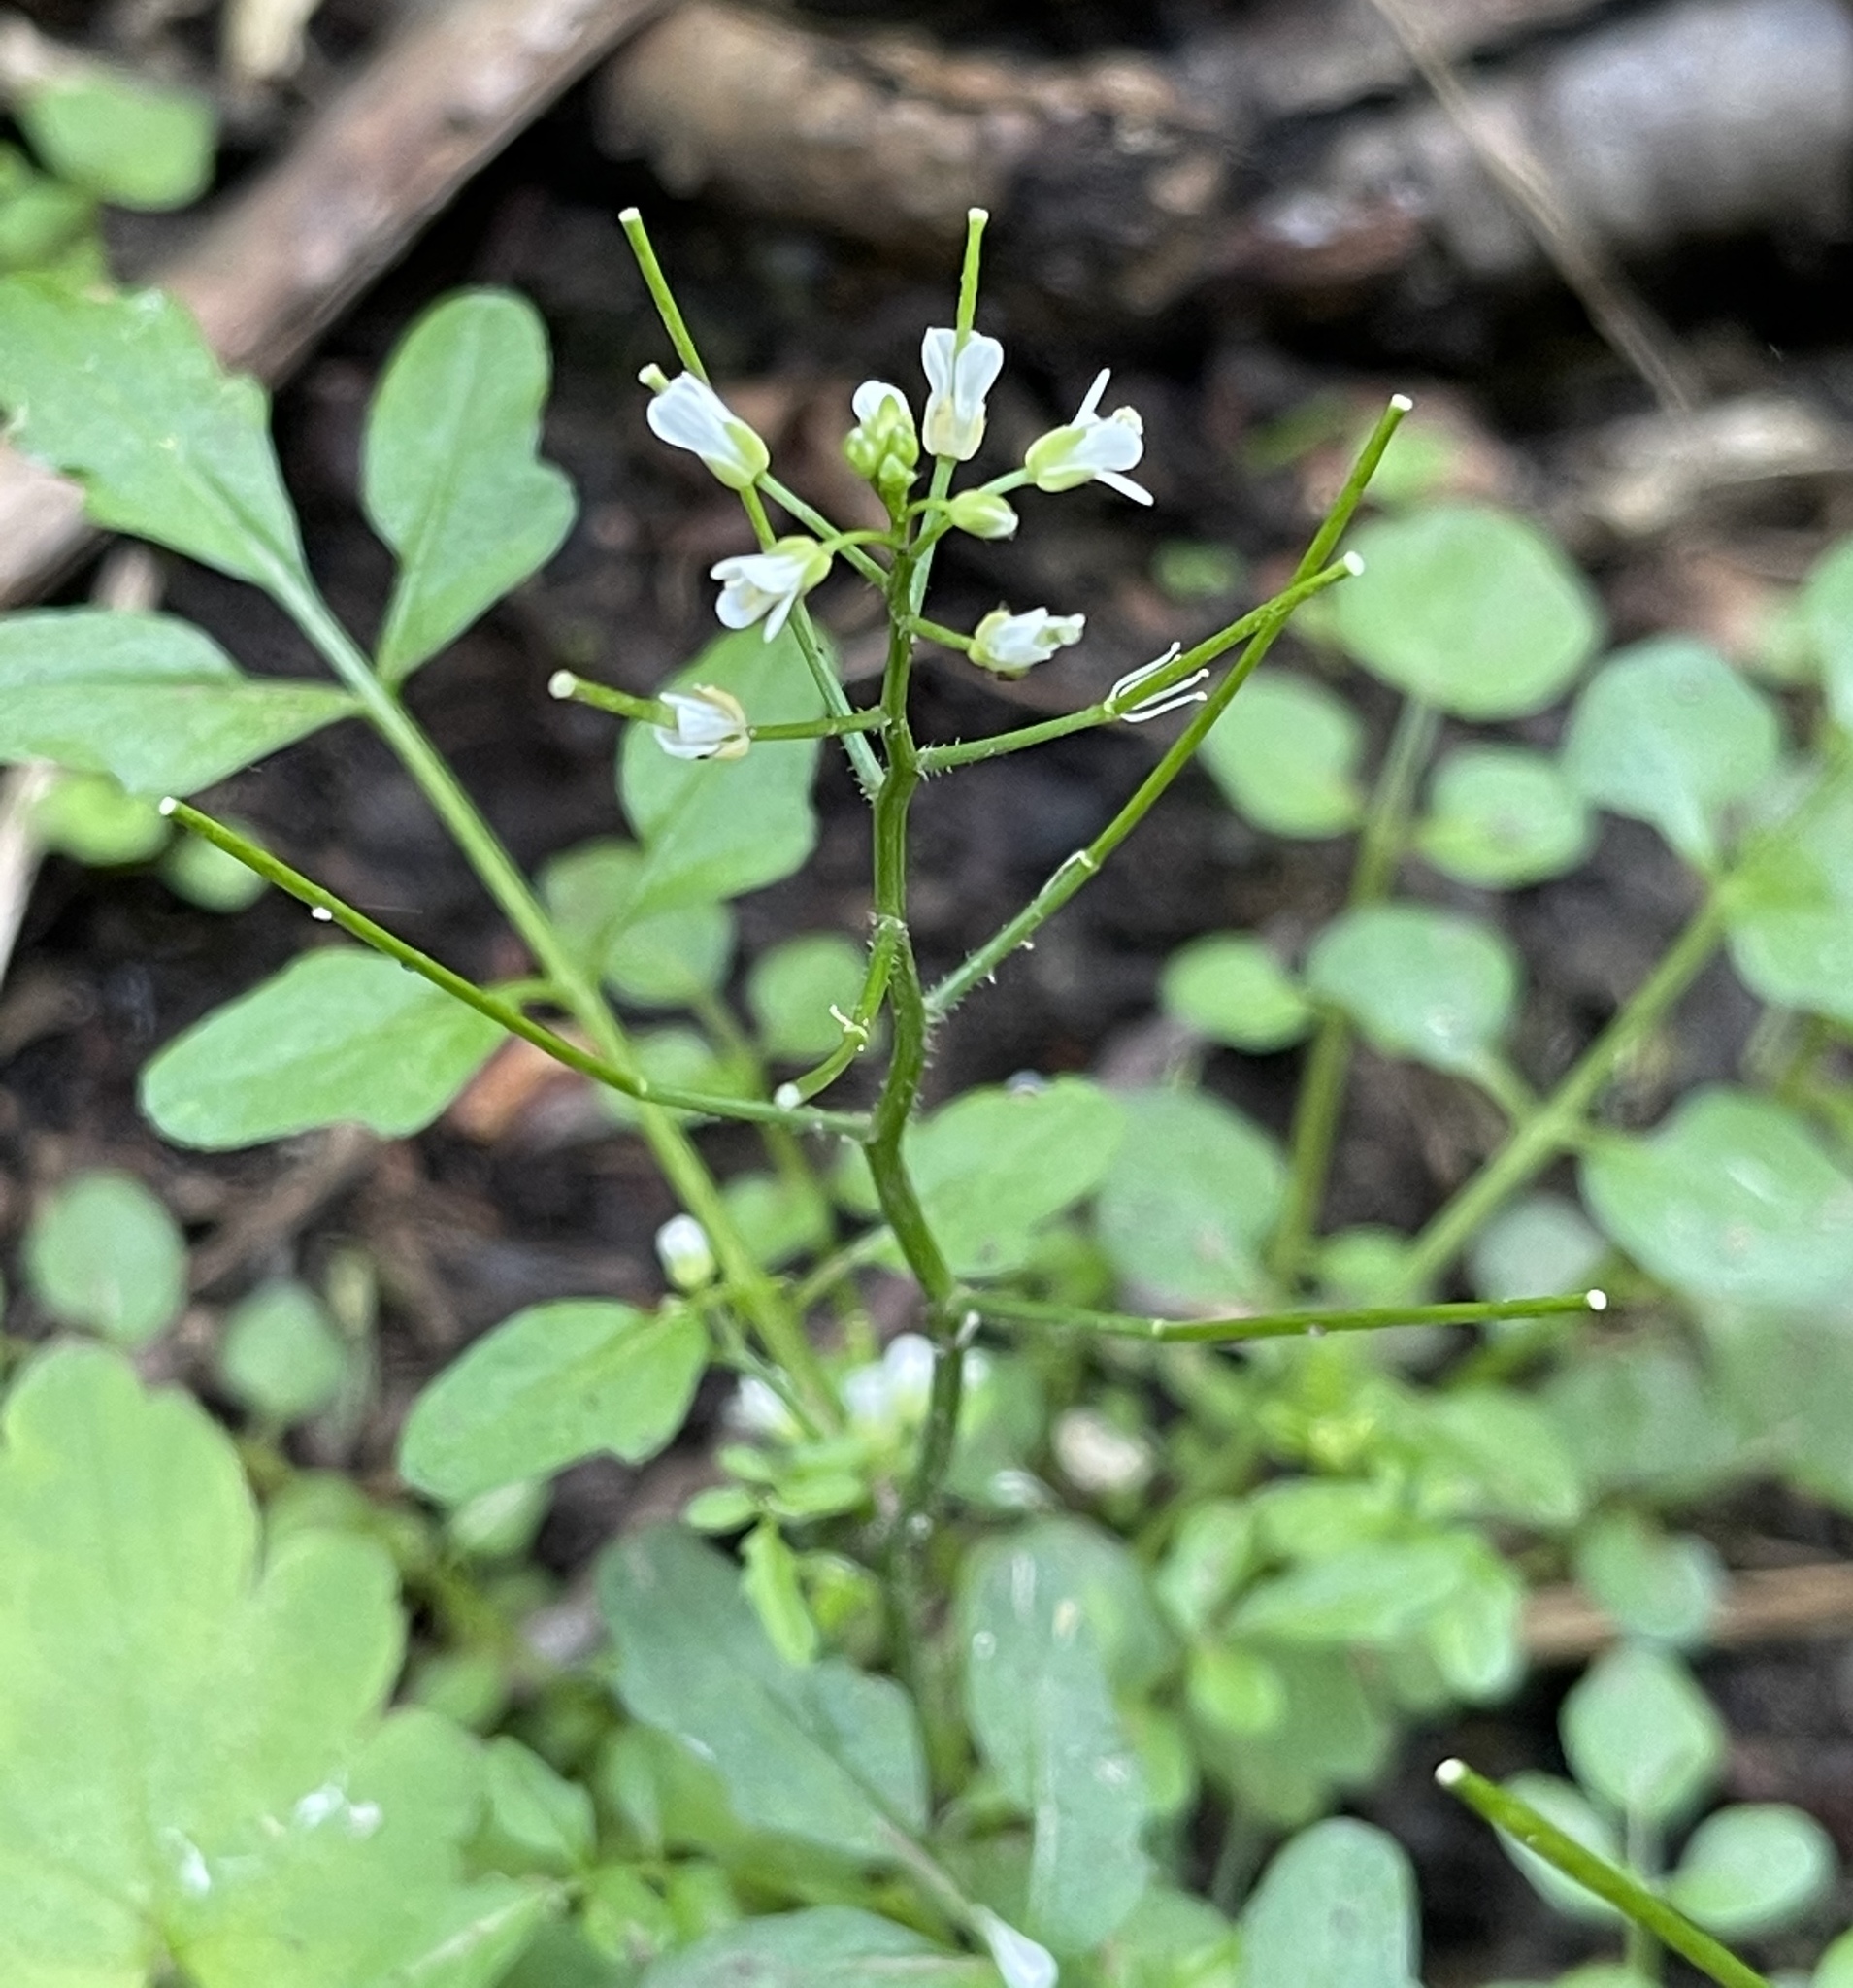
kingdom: Plantae
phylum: Tracheophyta
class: Magnoliopsida
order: Brassicales
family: Brassicaceae
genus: Cardamine
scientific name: Cardamine flexuosa
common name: Woodland bittercress
